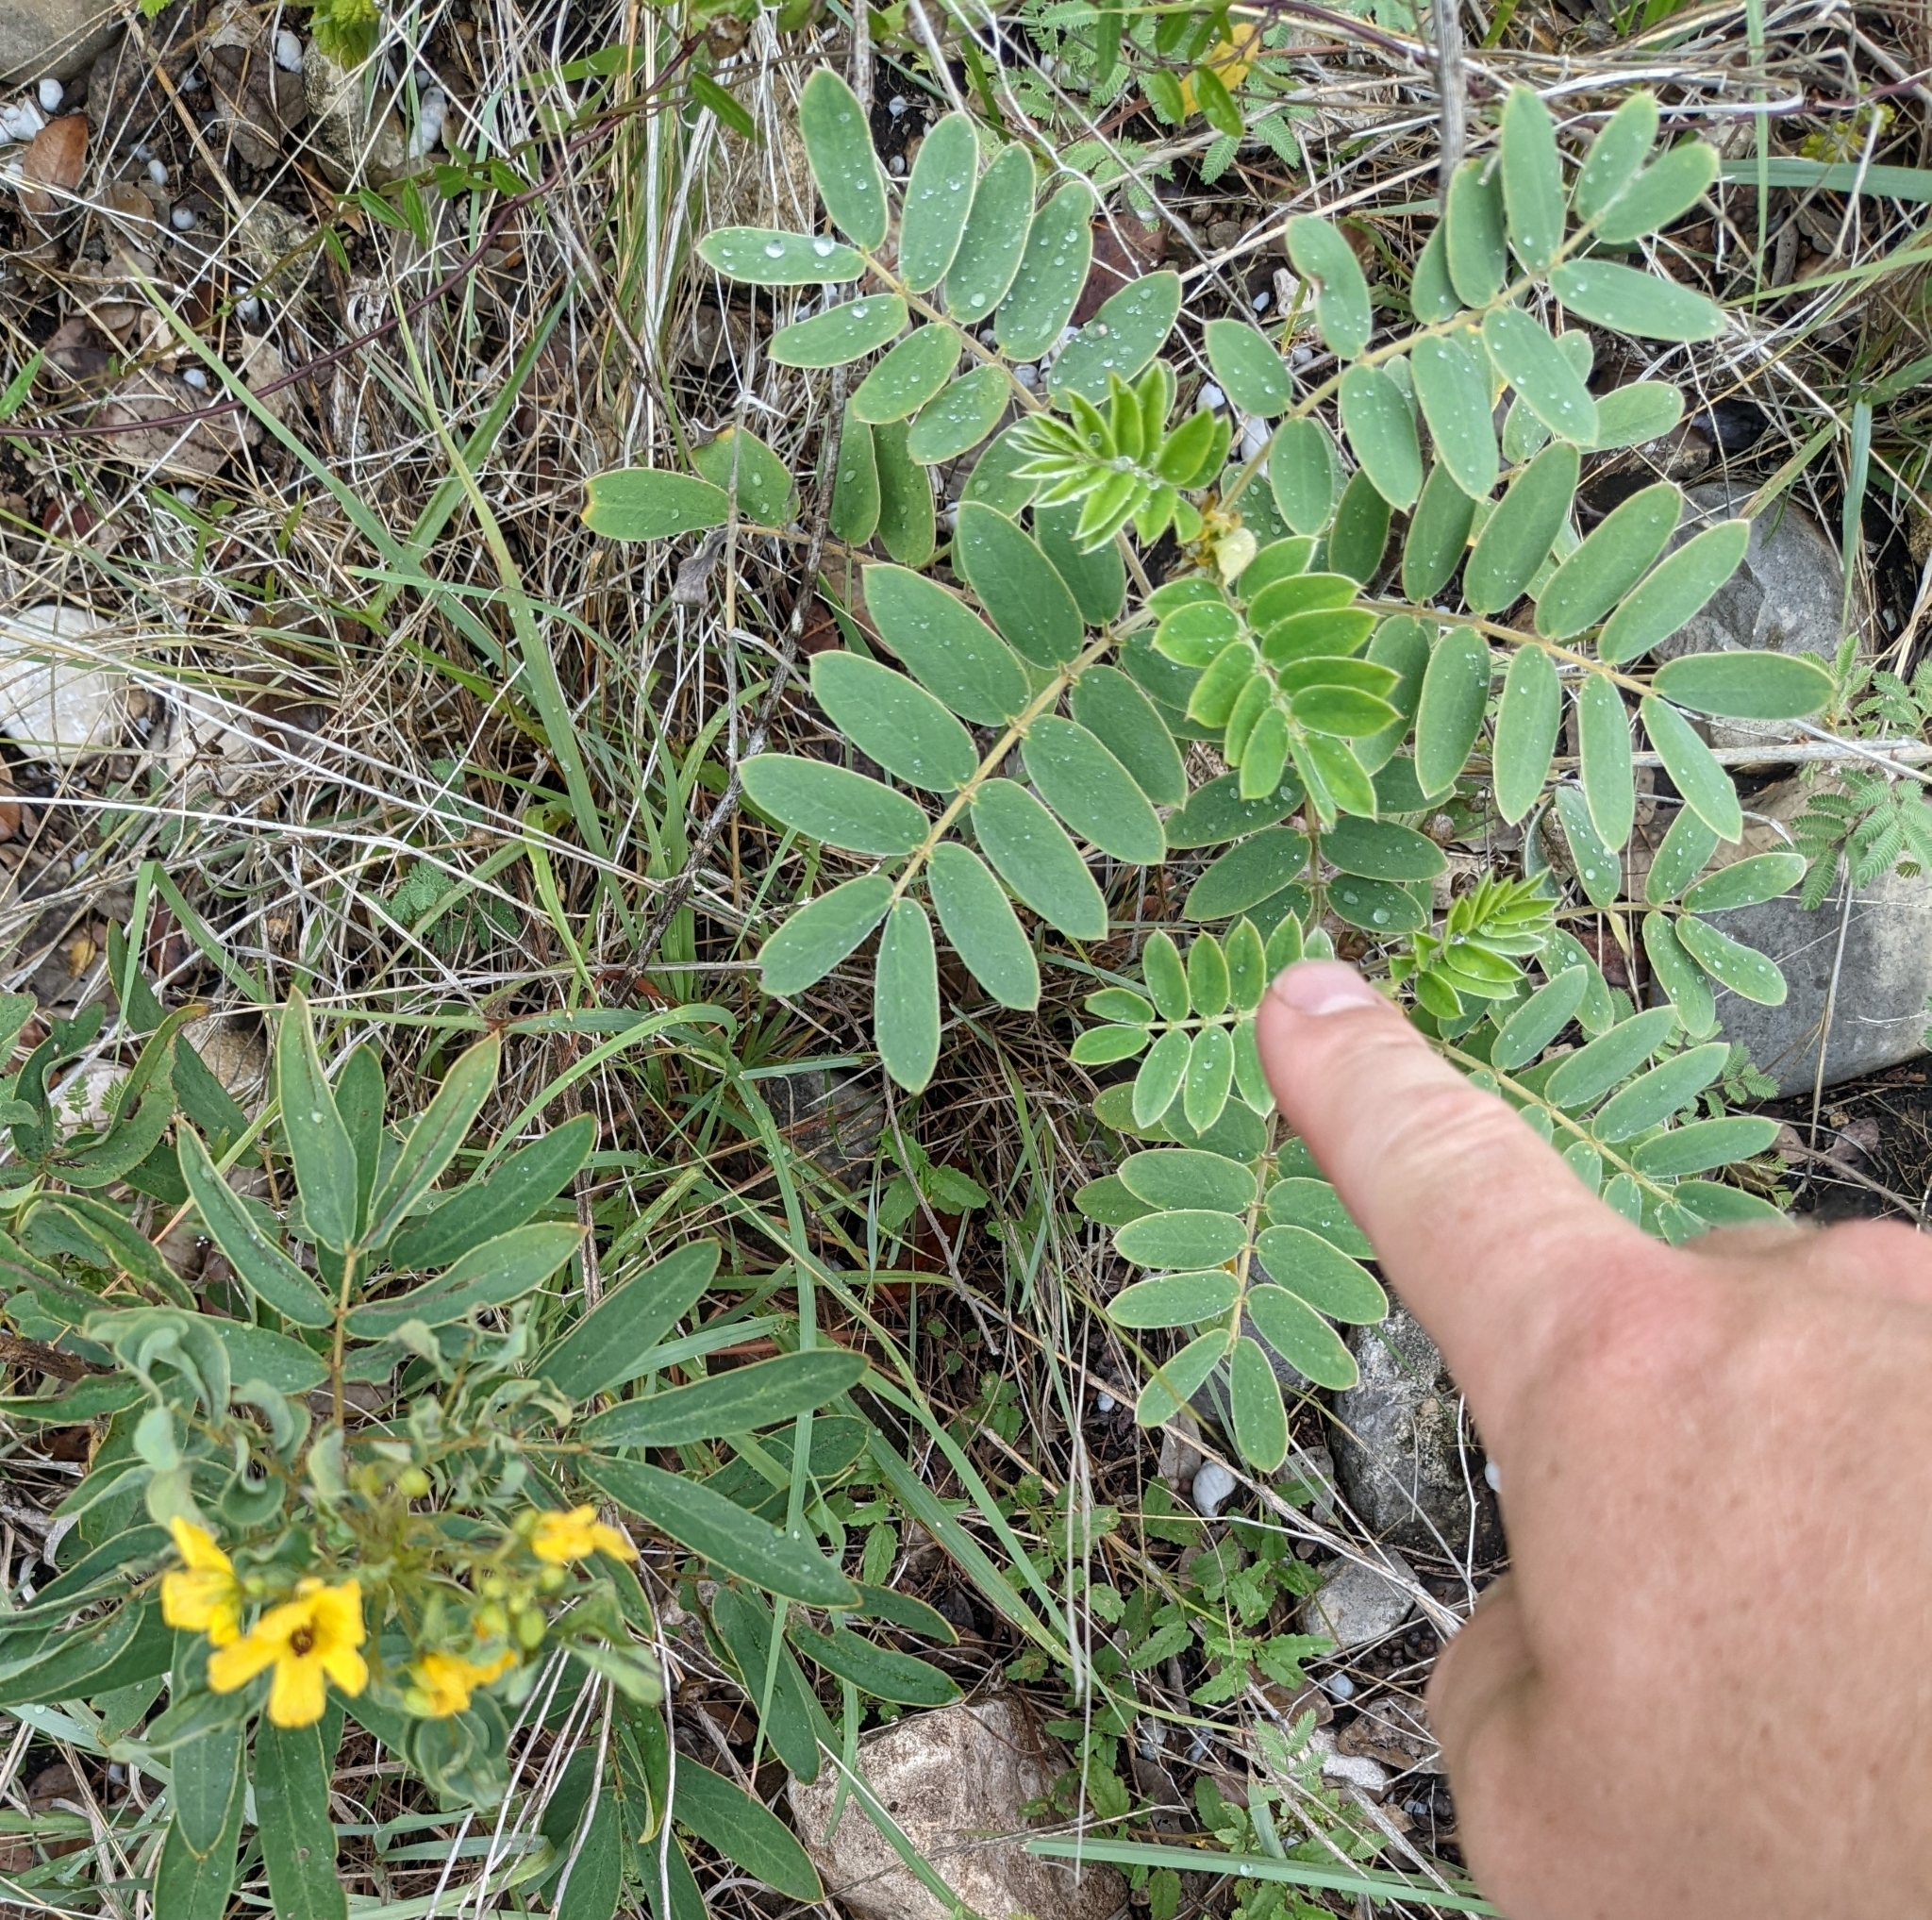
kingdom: Plantae
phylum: Tracheophyta
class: Magnoliopsida
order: Fabales
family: Fabaceae
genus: Senna
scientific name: Senna lindheimeriana
